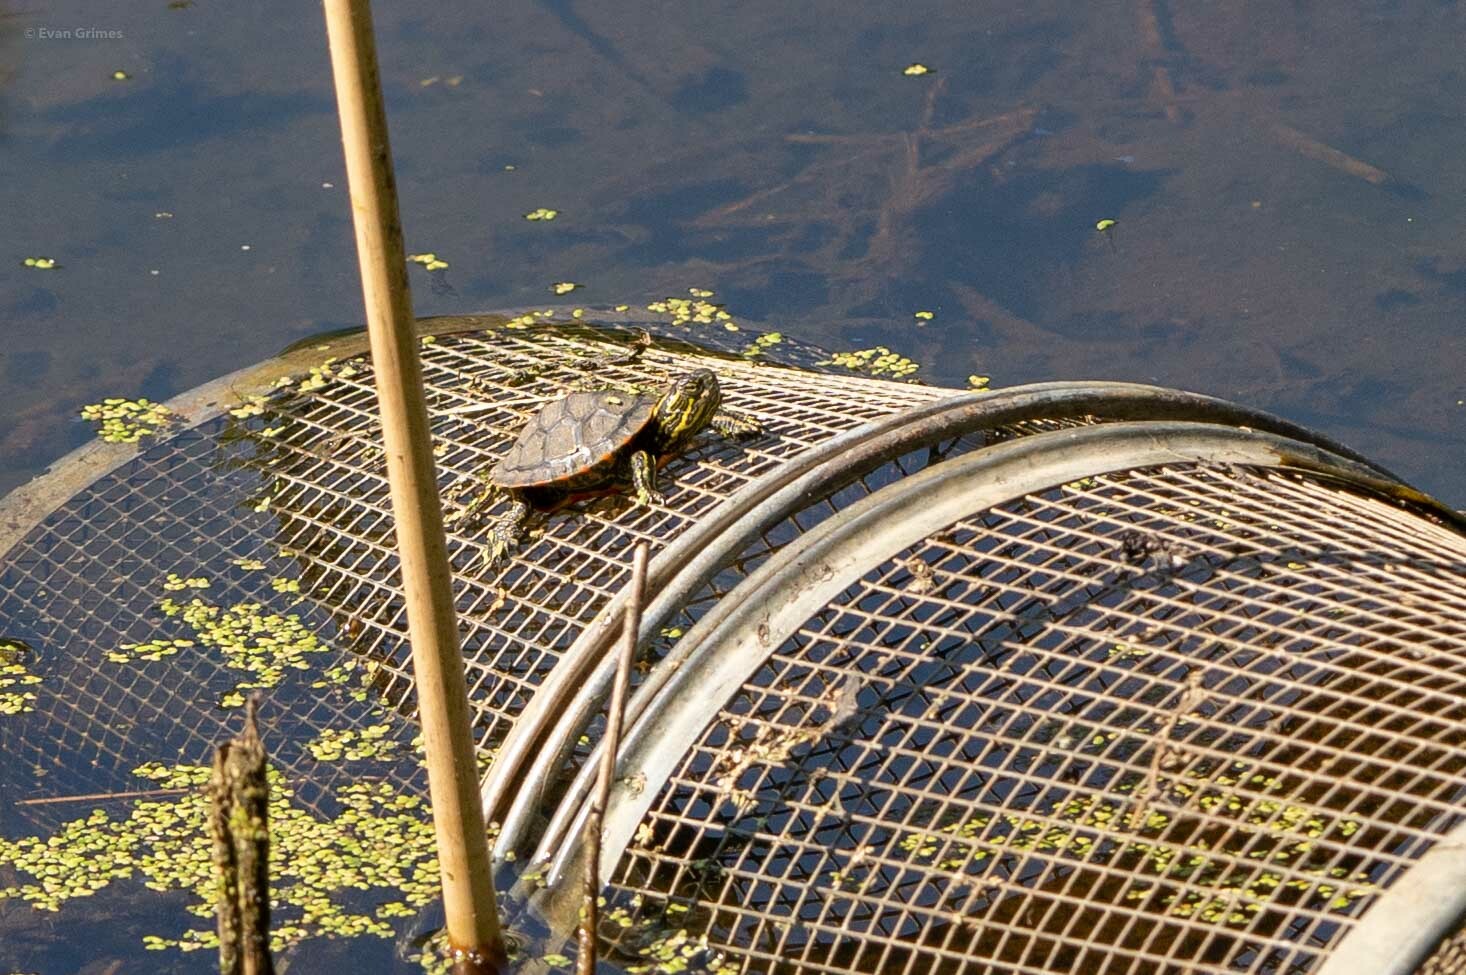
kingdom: Animalia
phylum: Chordata
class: Testudines
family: Emydidae
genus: Chrysemys
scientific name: Chrysemys picta
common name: Painted turtle
